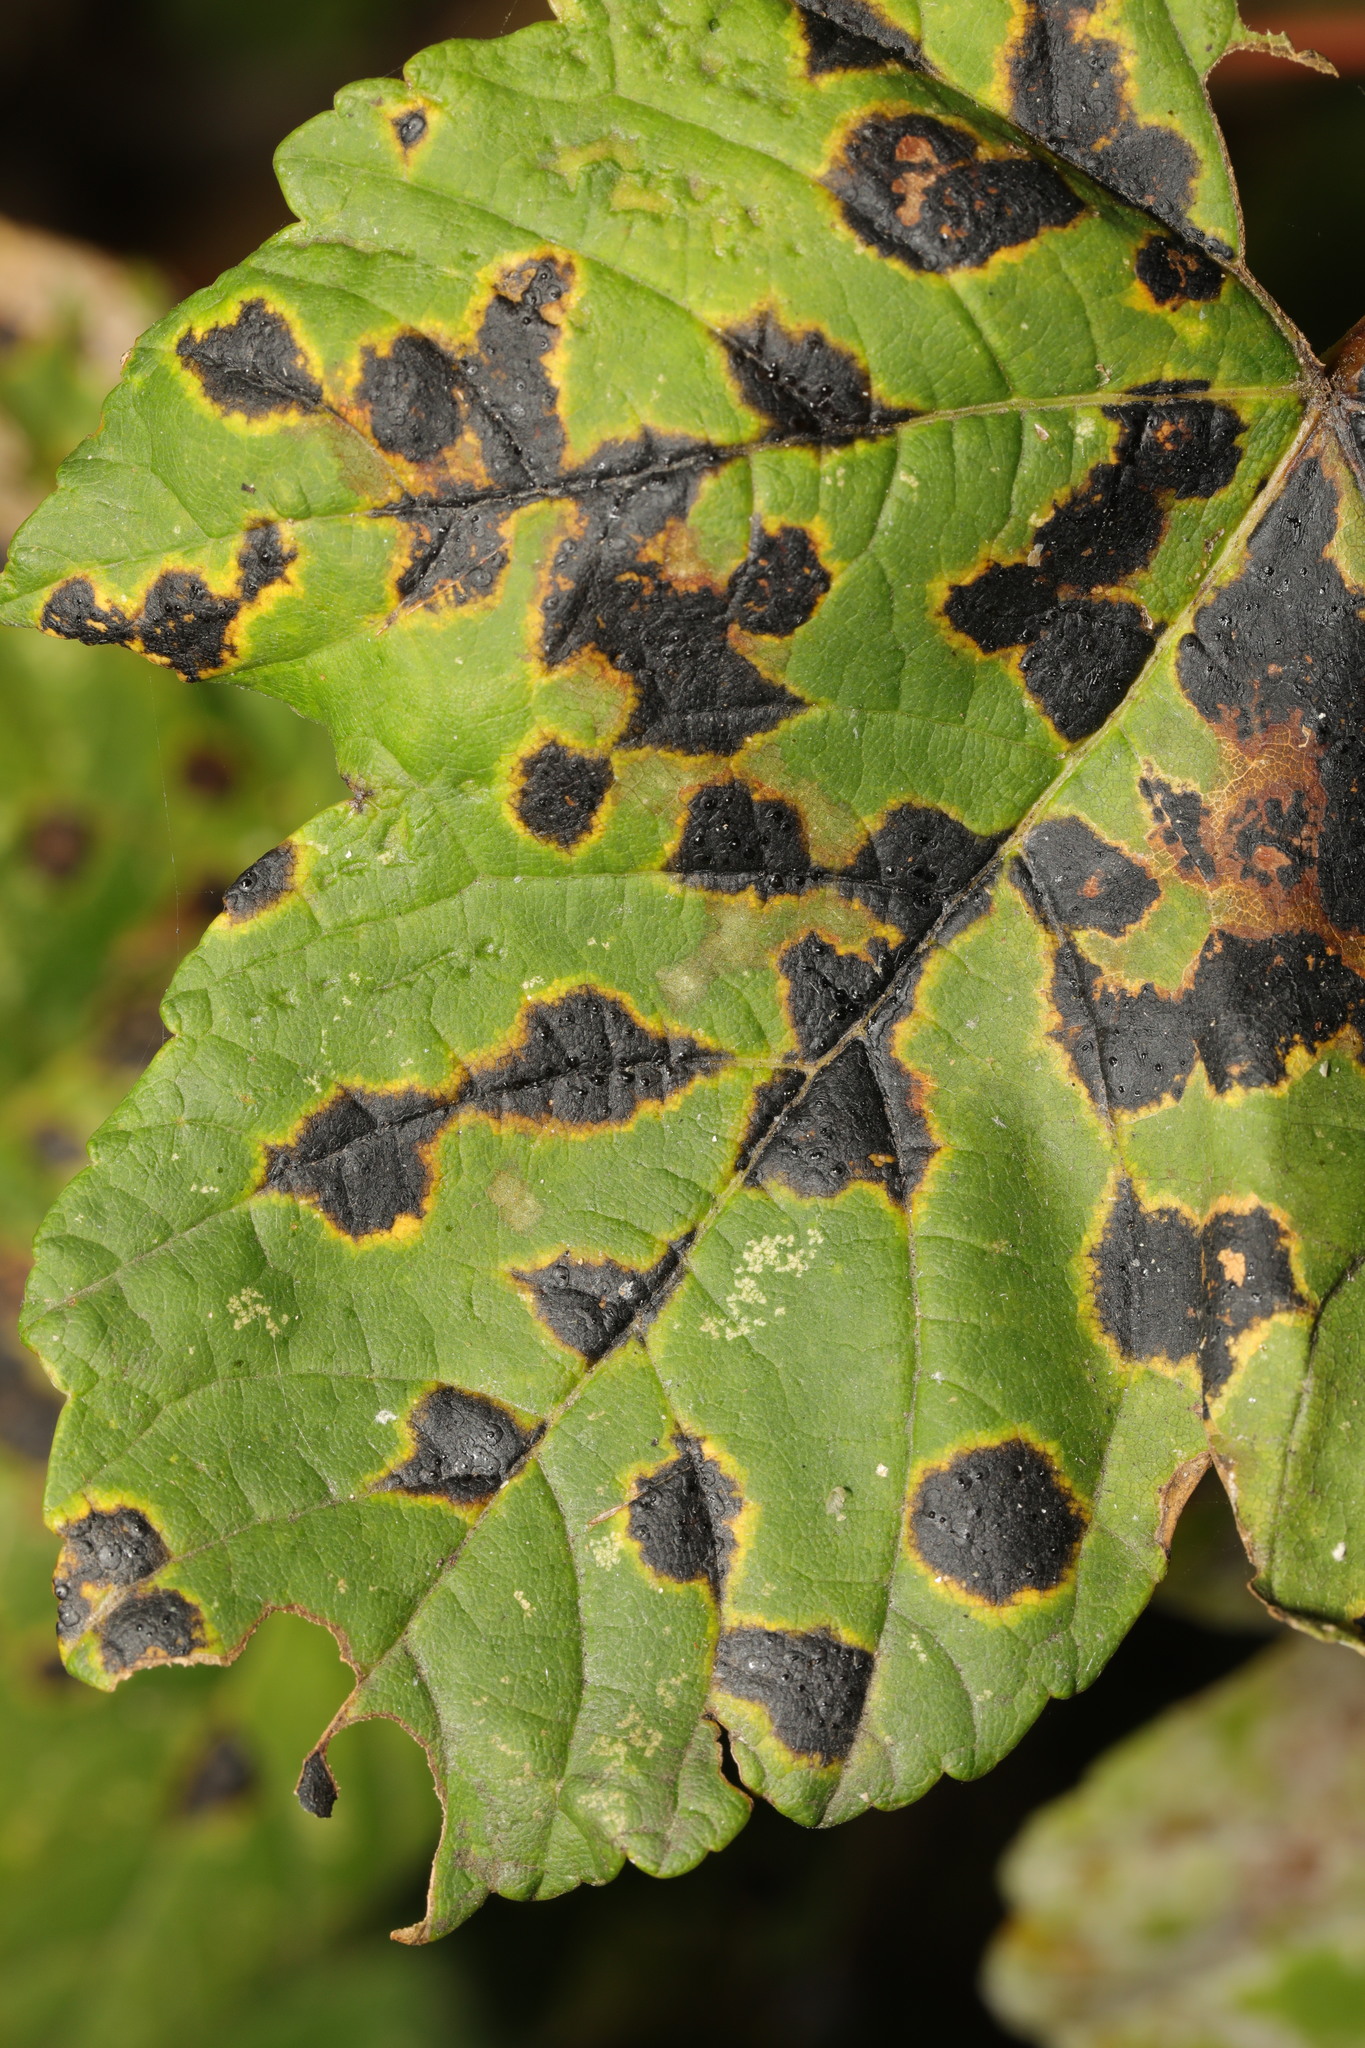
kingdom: Fungi
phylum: Ascomycota
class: Leotiomycetes
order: Rhytismatales
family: Rhytismataceae
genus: Rhytisma
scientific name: Rhytisma acerinum
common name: European tar spot
